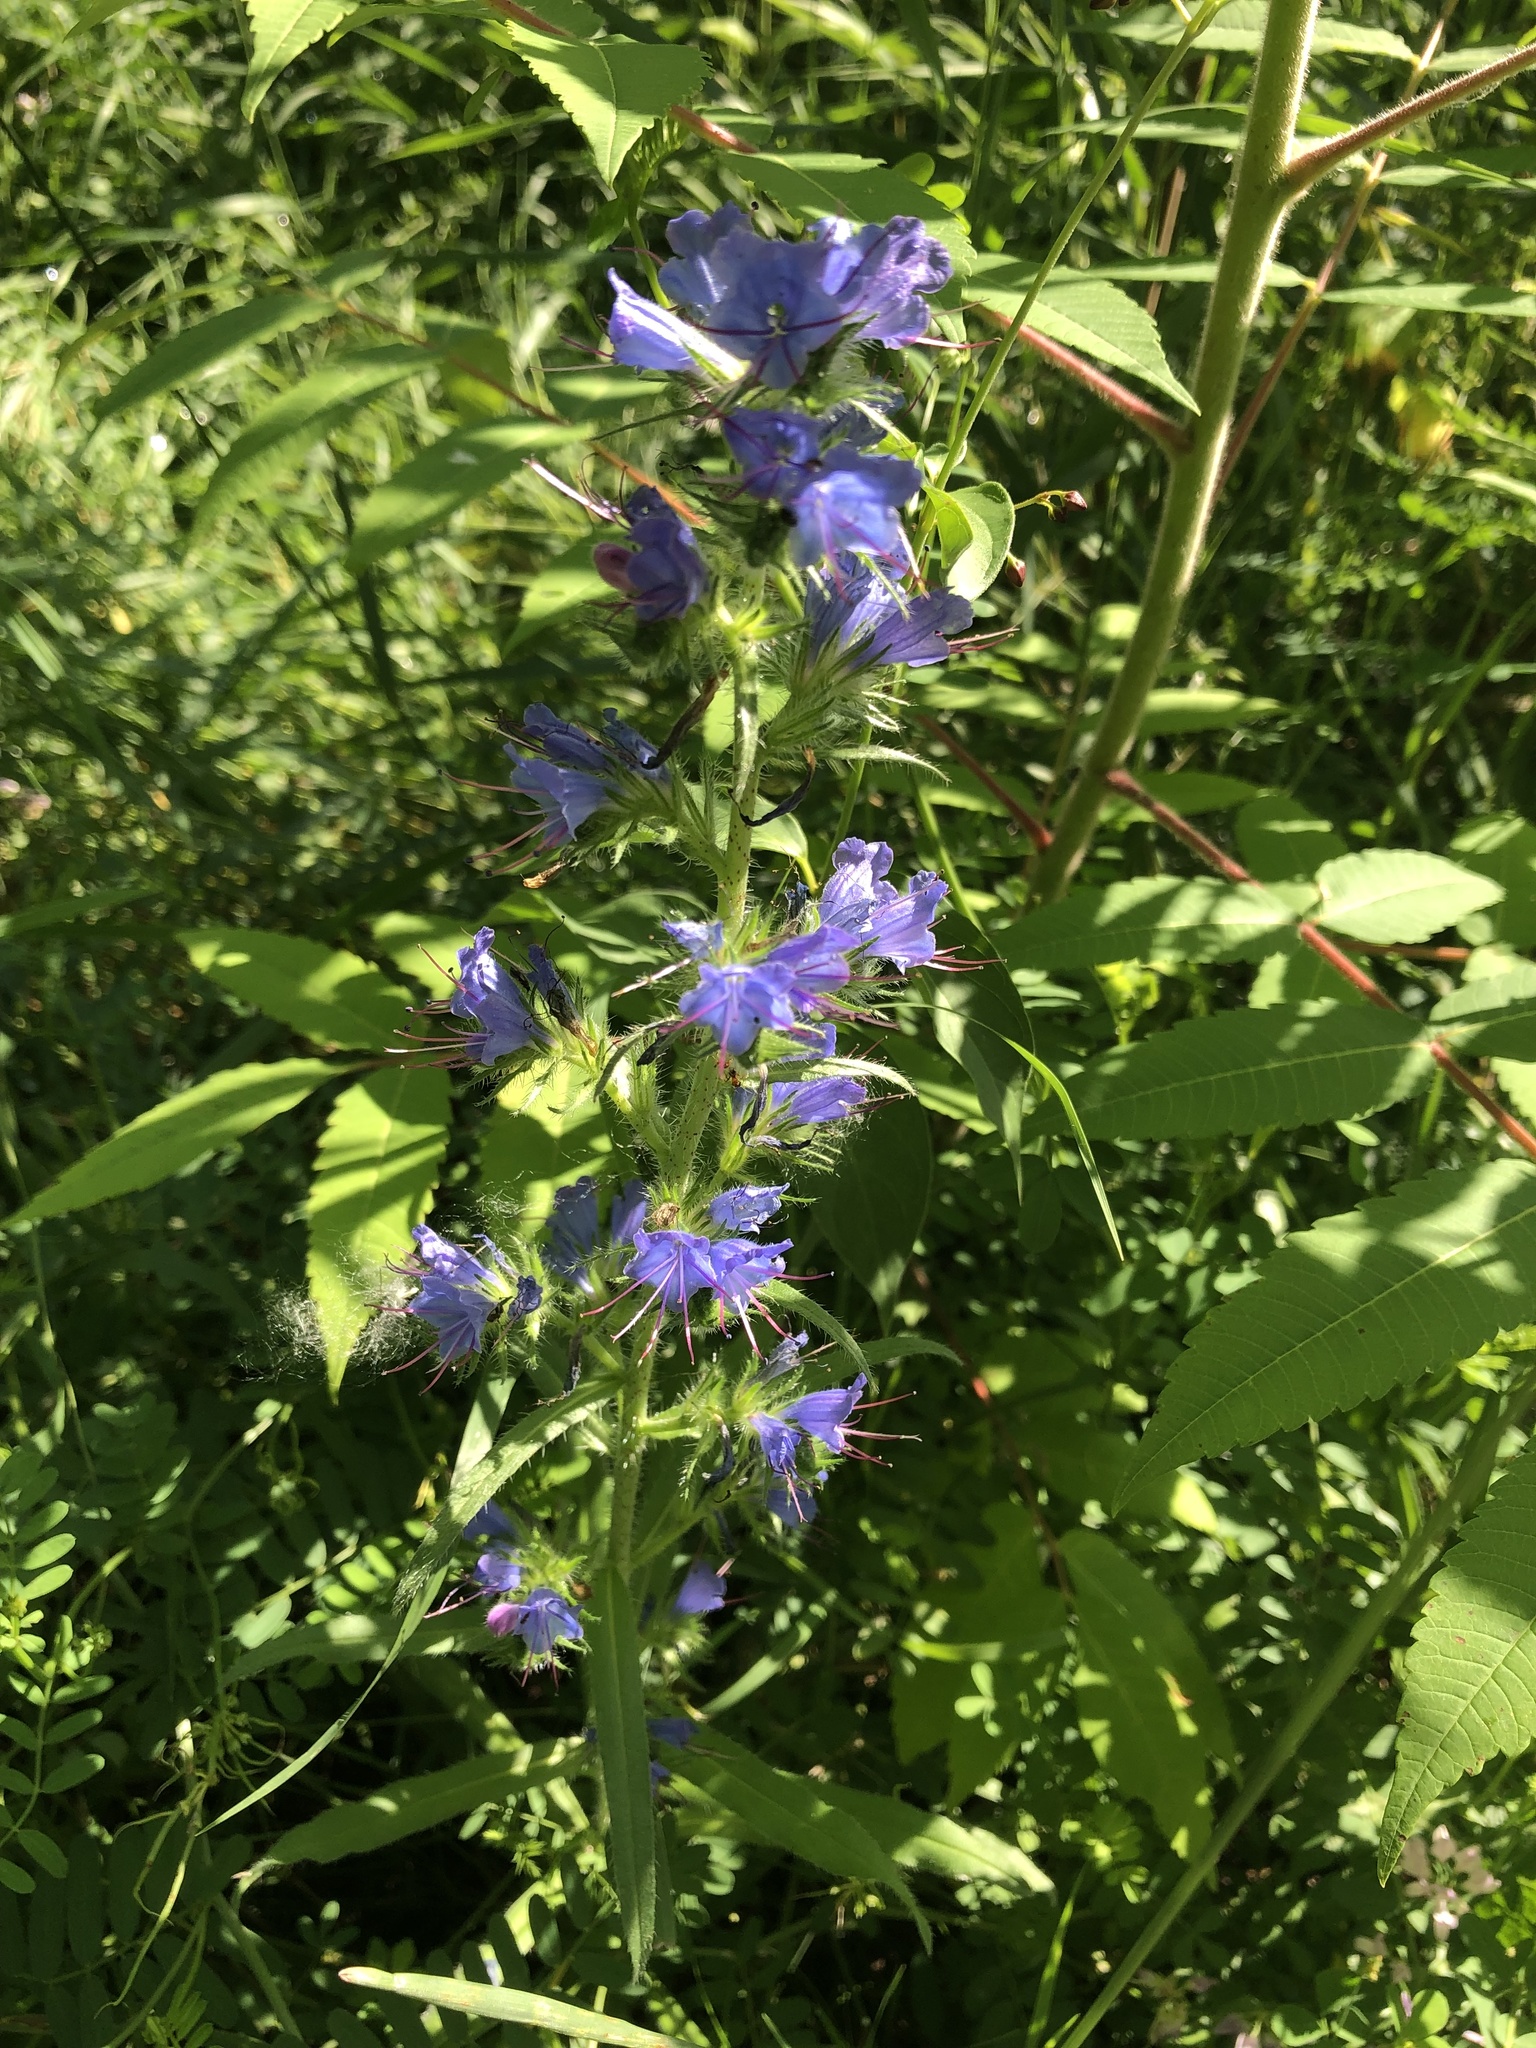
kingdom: Plantae
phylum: Tracheophyta
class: Magnoliopsida
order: Boraginales
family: Boraginaceae
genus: Echium
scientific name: Echium vulgare
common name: Common viper's bugloss
